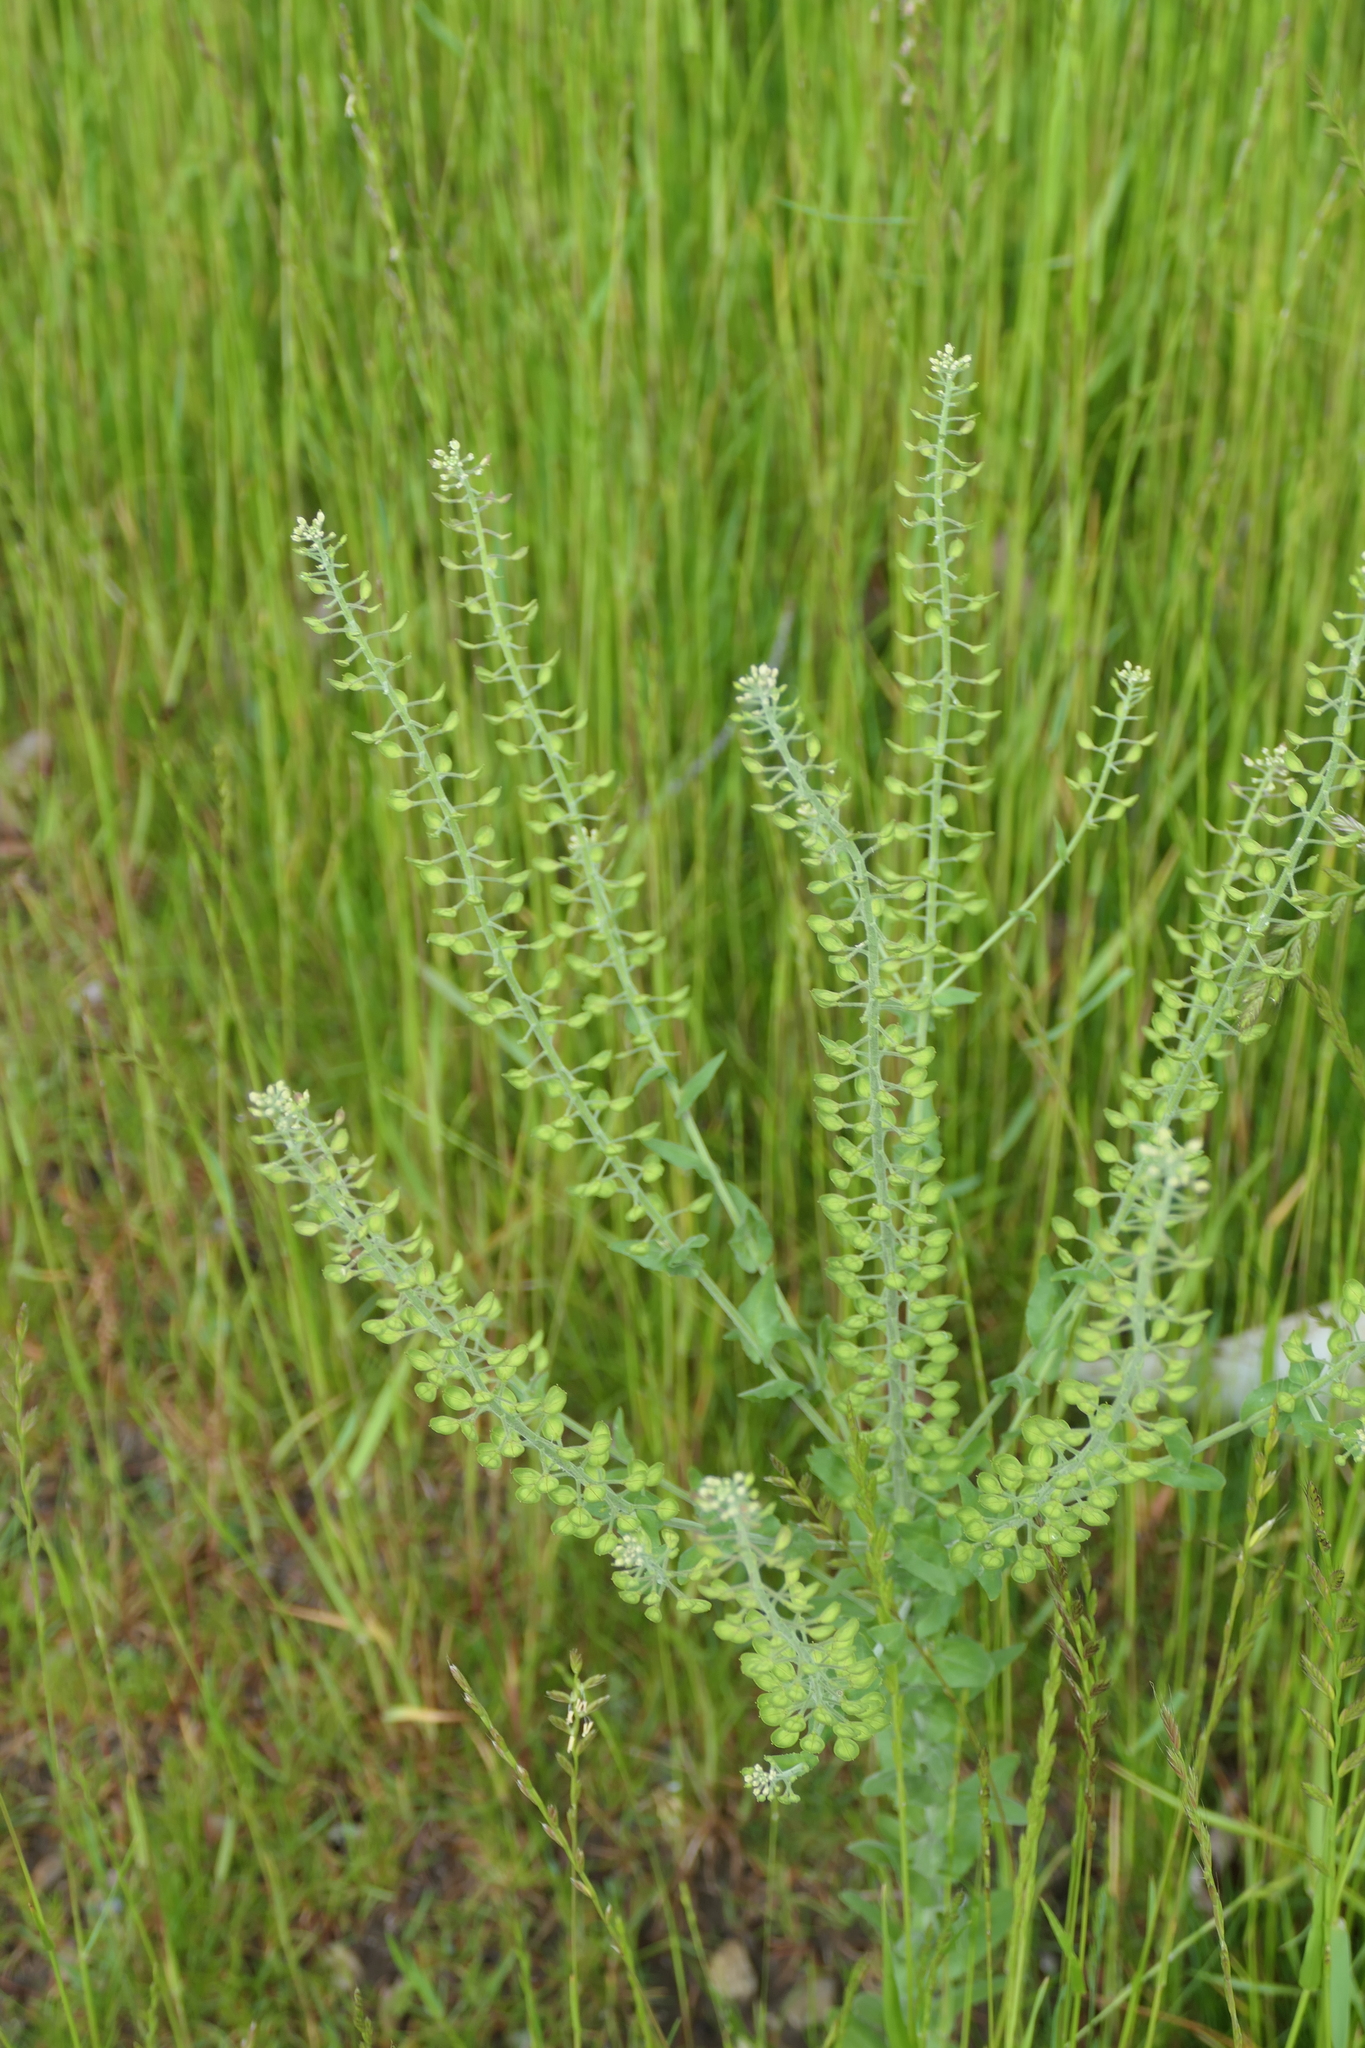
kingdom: Plantae
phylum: Tracheophyta
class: Magnoliopsida
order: Brassicales
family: Brassicaceae
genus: Lepidium
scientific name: Lepidium campestre
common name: Field pepperwort
